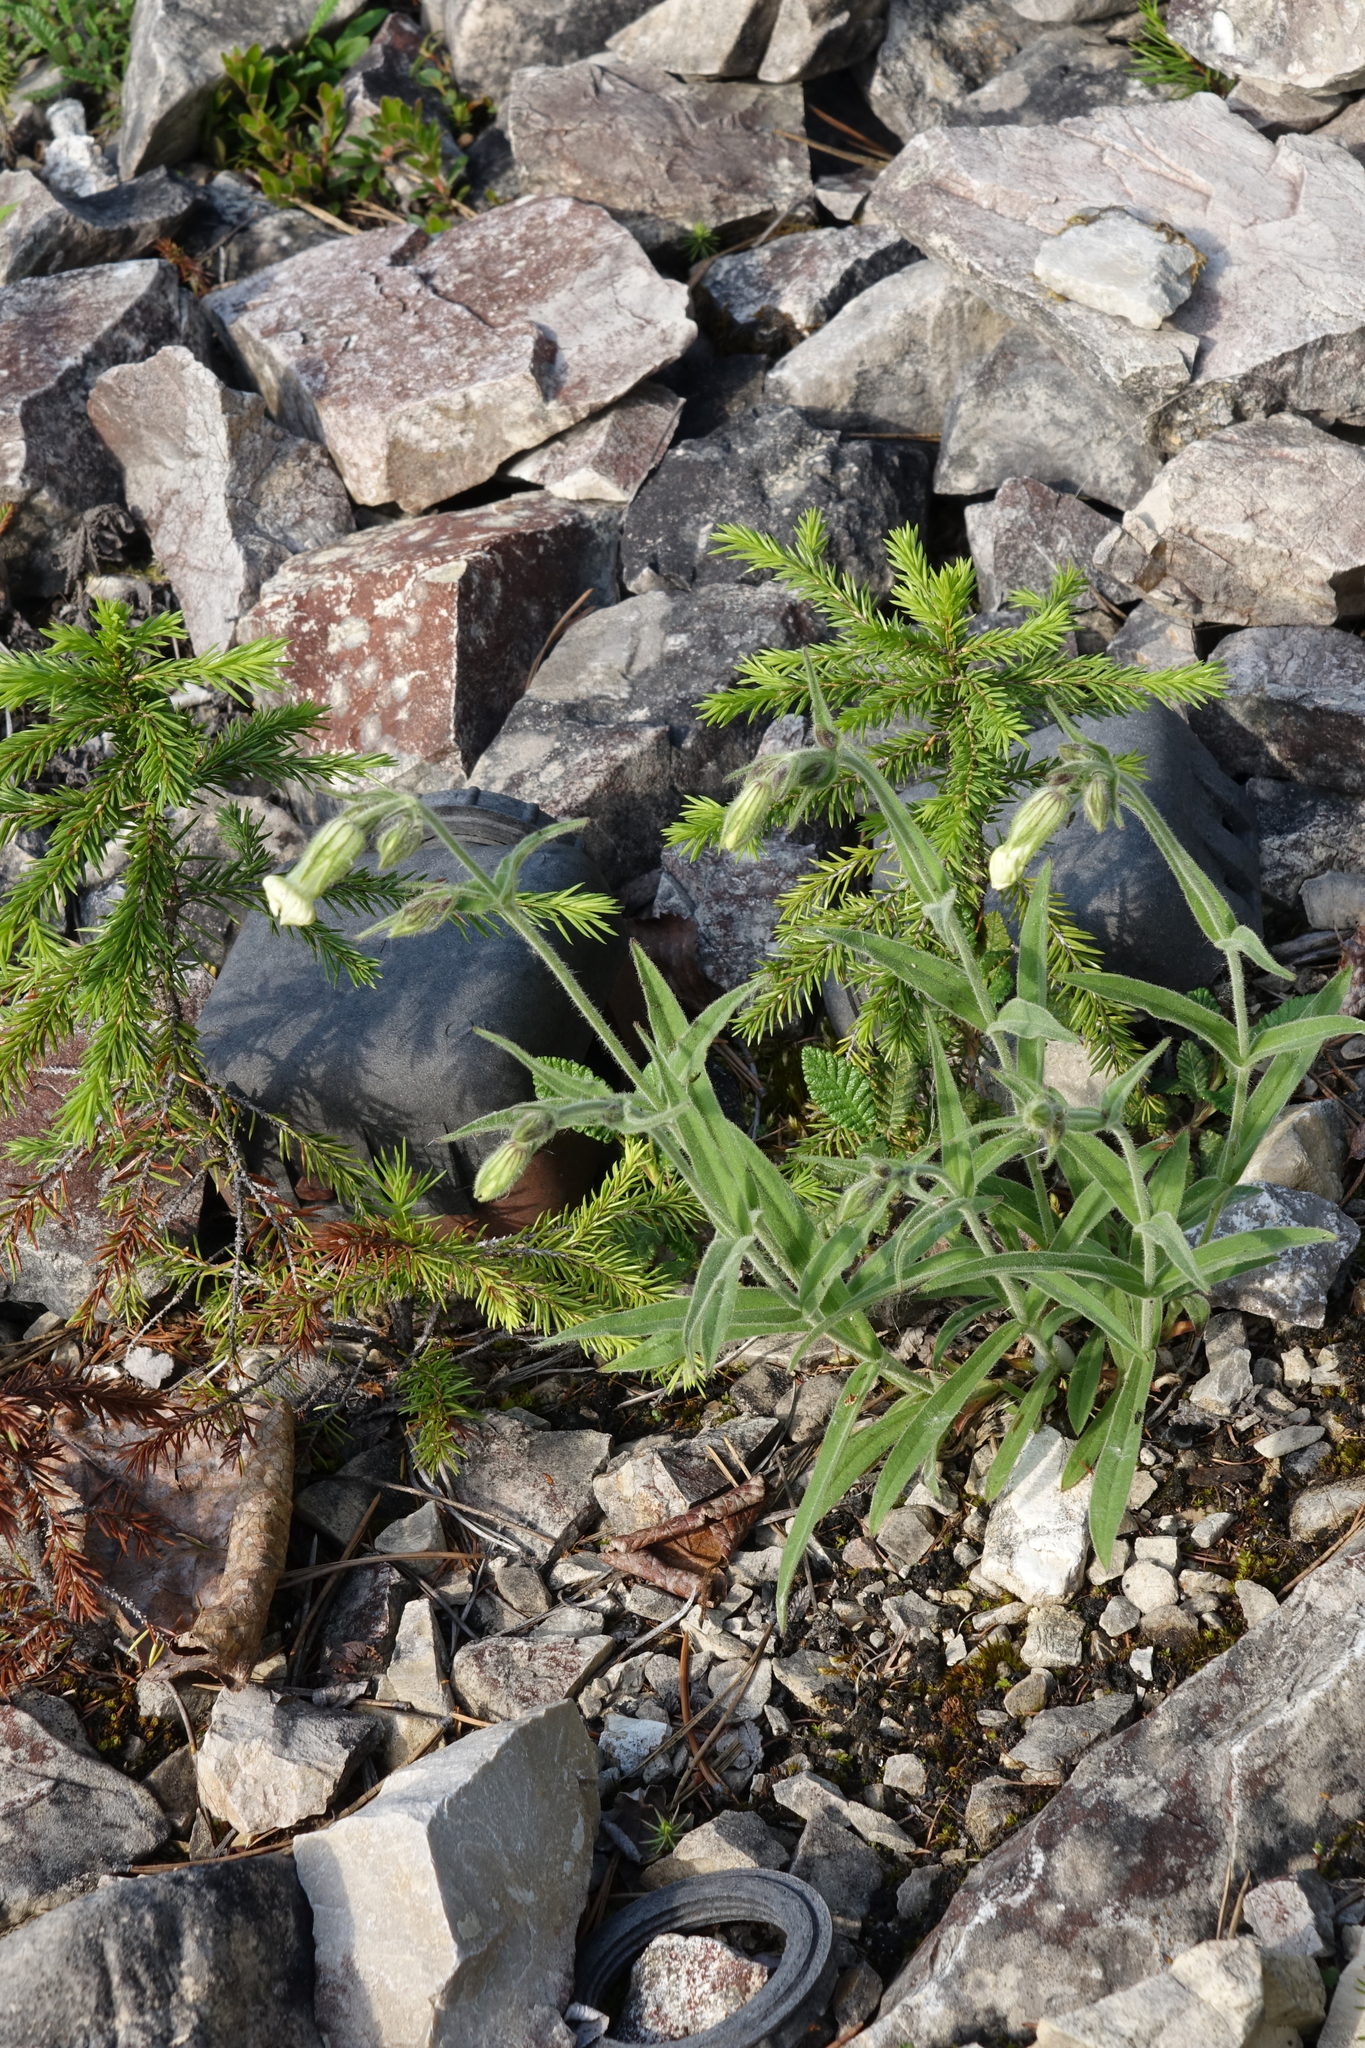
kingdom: Plantae
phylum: Tracheophyta
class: Magnoliopsida
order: Caryophyllales
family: Caryophyllaceae
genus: Silene
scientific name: Silene latifolia
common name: White campion
